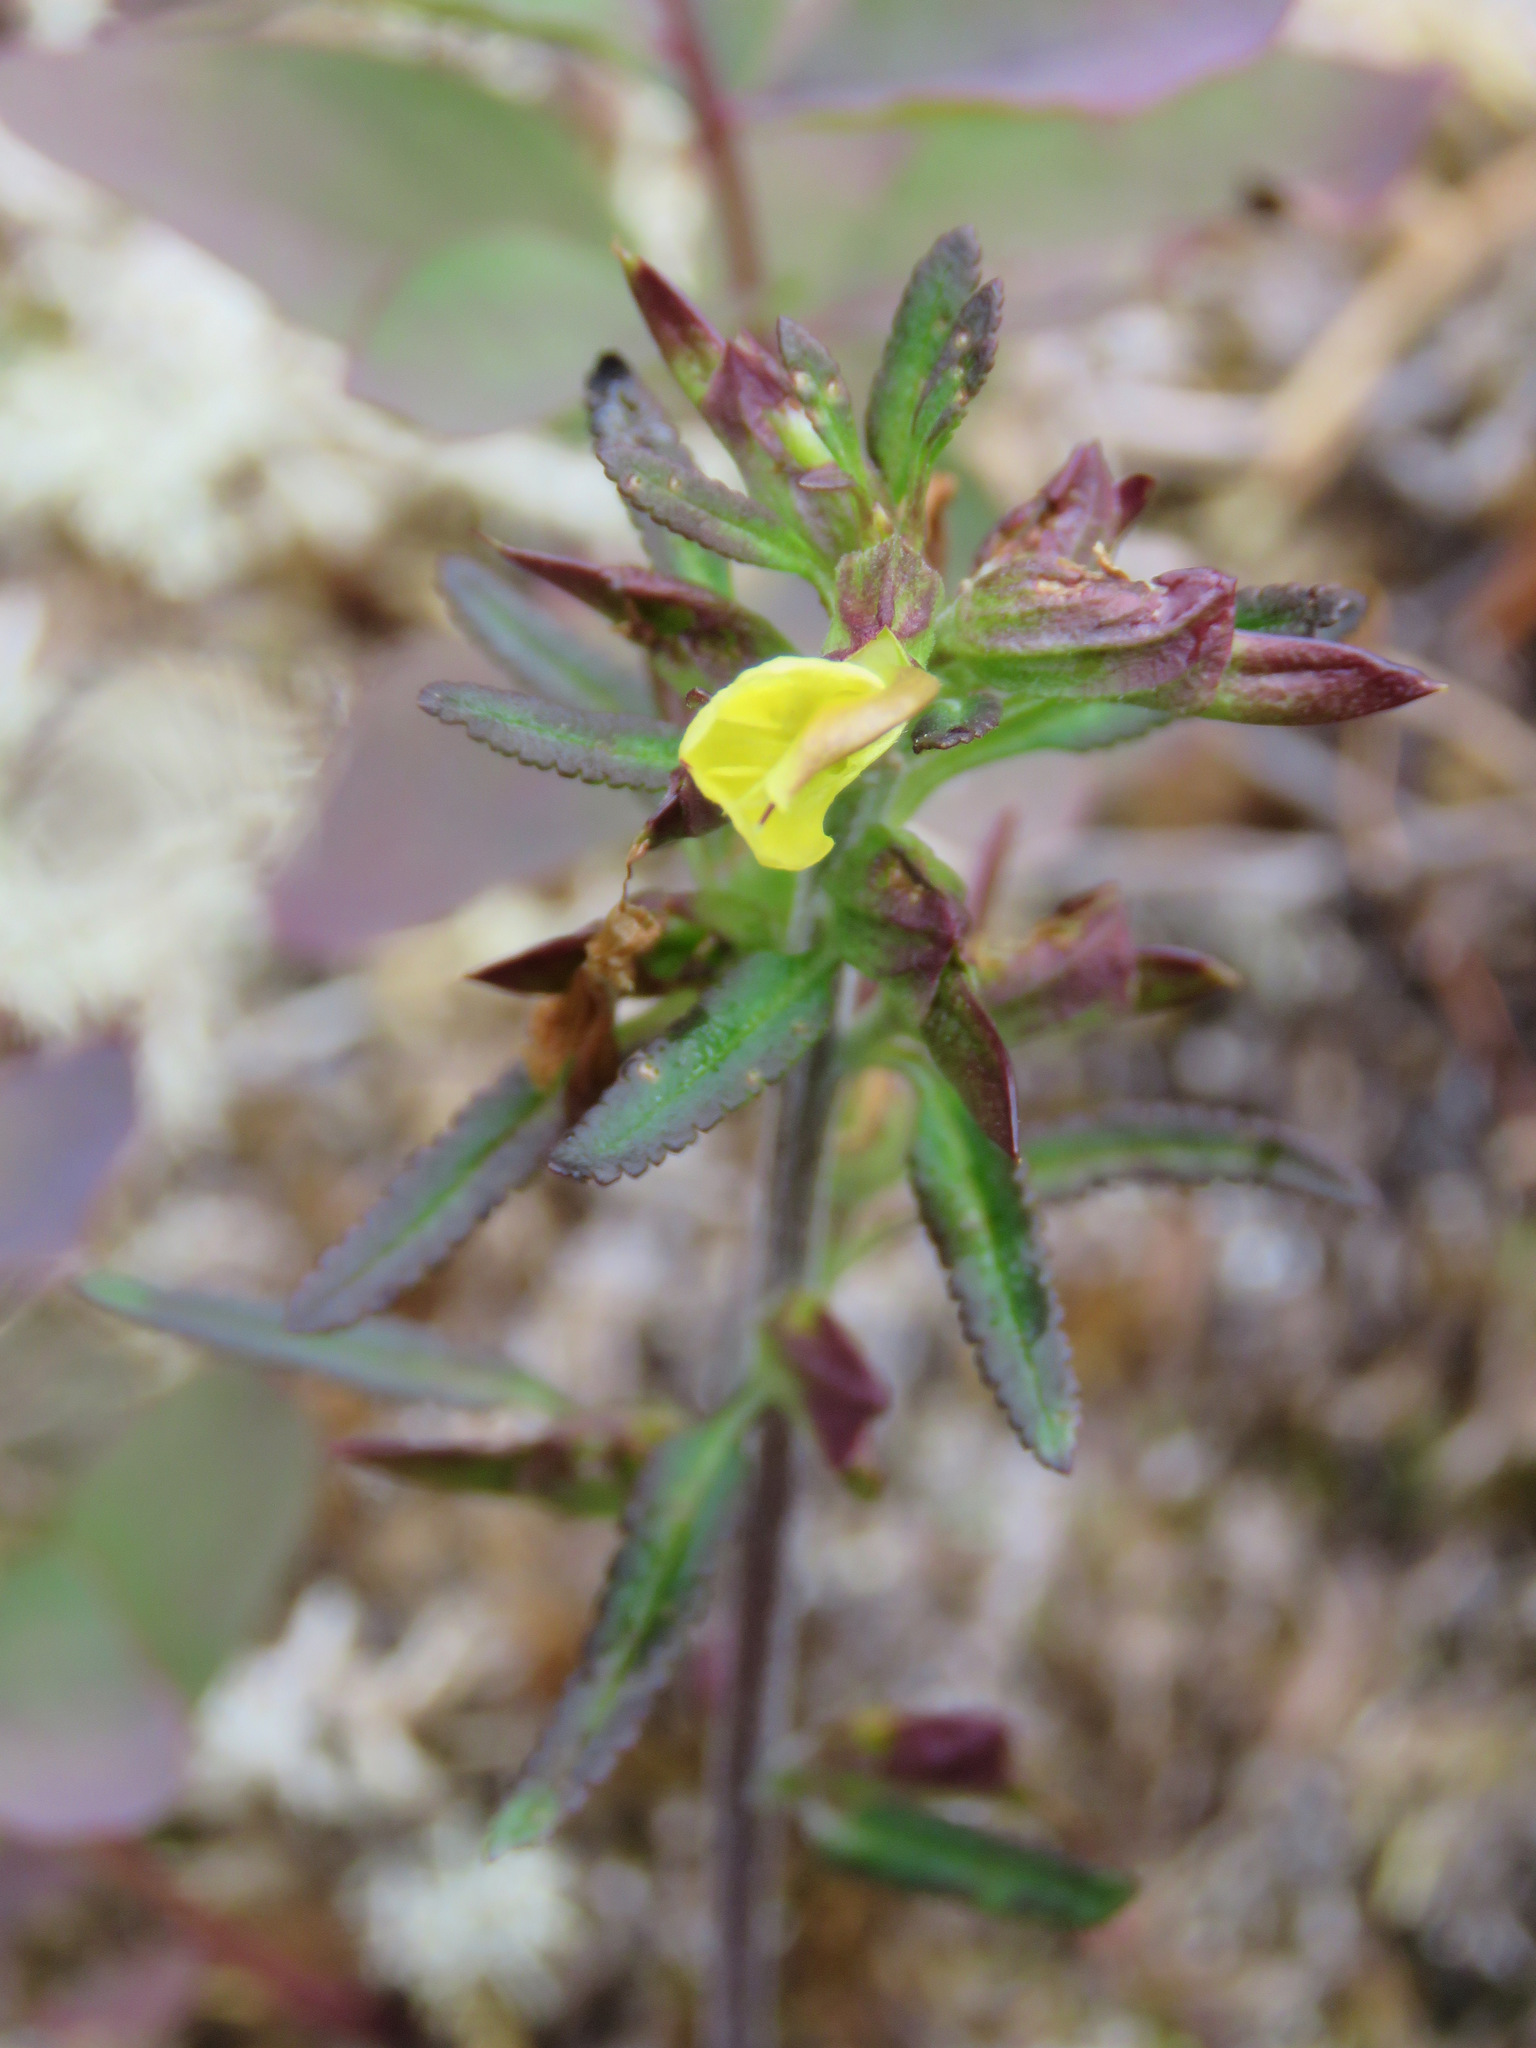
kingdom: Plantae
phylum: Tracheophyta
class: Magnoliopsida
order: Lamiales
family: Orobanchaceae
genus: Pedicularis
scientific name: Pedicularis labradorica
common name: Labrador lousewort
